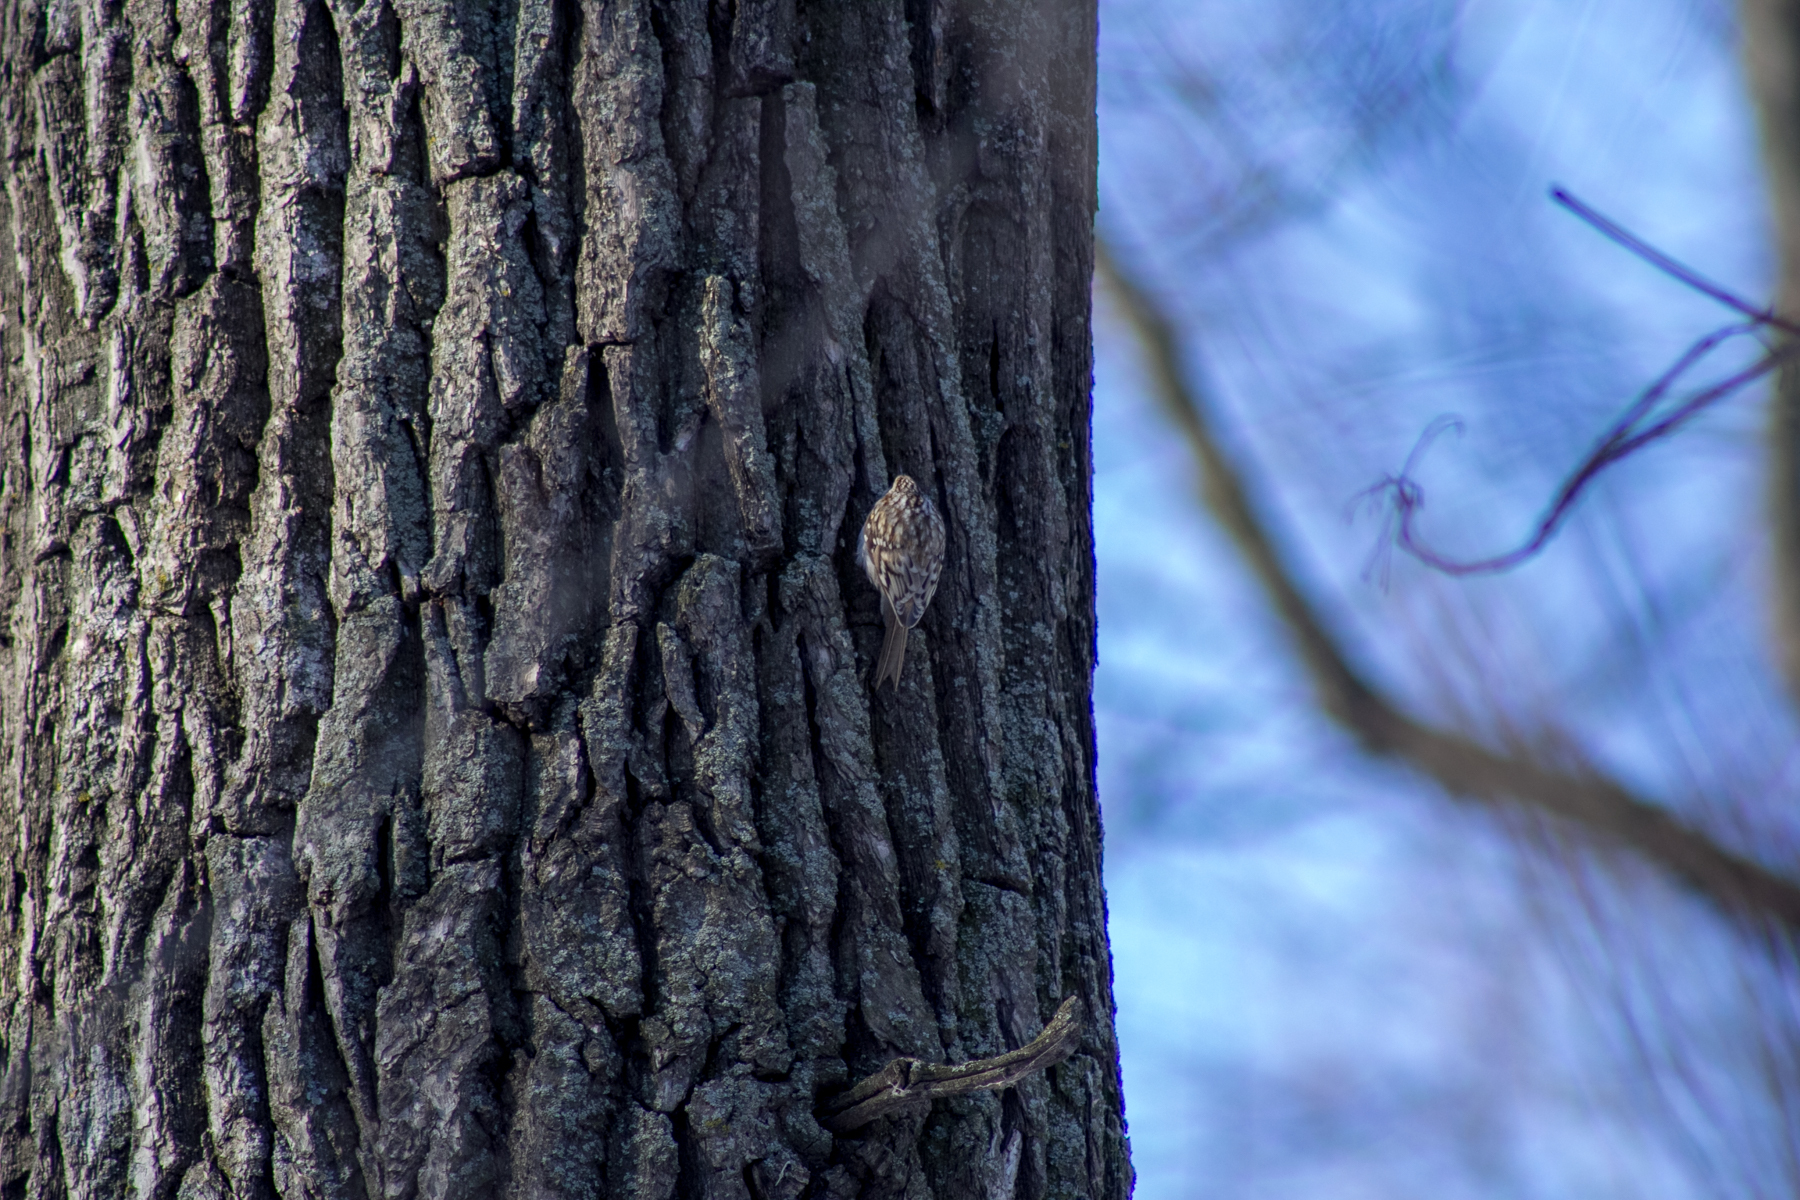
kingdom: Animalia
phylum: Chordata
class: Aves
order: Passeriformes
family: Certhiidae
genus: Certhia
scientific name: Certhia familiaris
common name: Eurasian treecreeper
